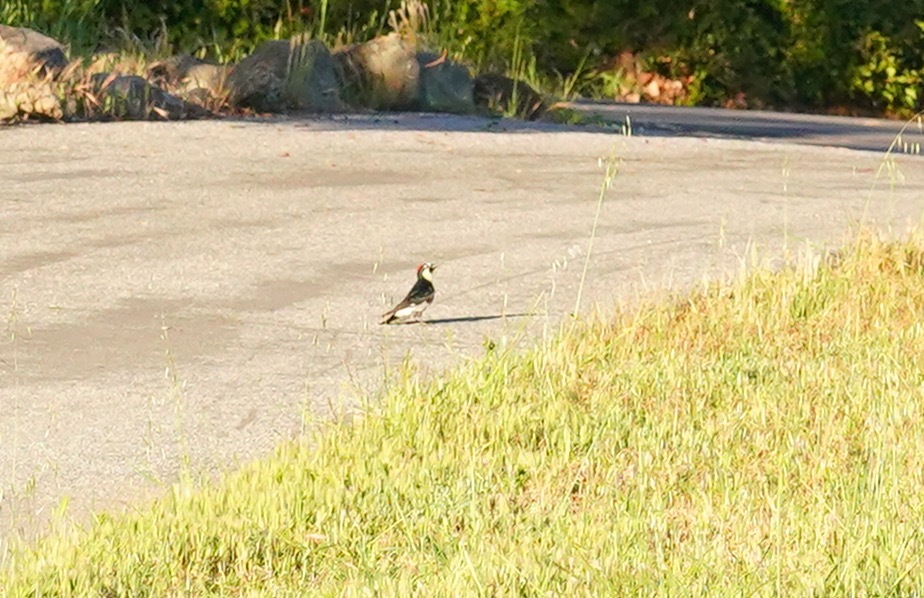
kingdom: Animalia
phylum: Chordata
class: Aves
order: Piciformes
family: Picidae
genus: Melanerpes
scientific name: Melanerpes formicivorus
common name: Acorn woodpecker
